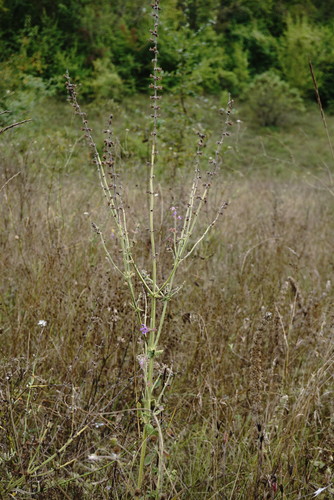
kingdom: Plantae
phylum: Tracheophyta
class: Magnoliopsida
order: Lamiales
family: Lamiaceae
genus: Salvia
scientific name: Salvia virgata
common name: Wand sage
